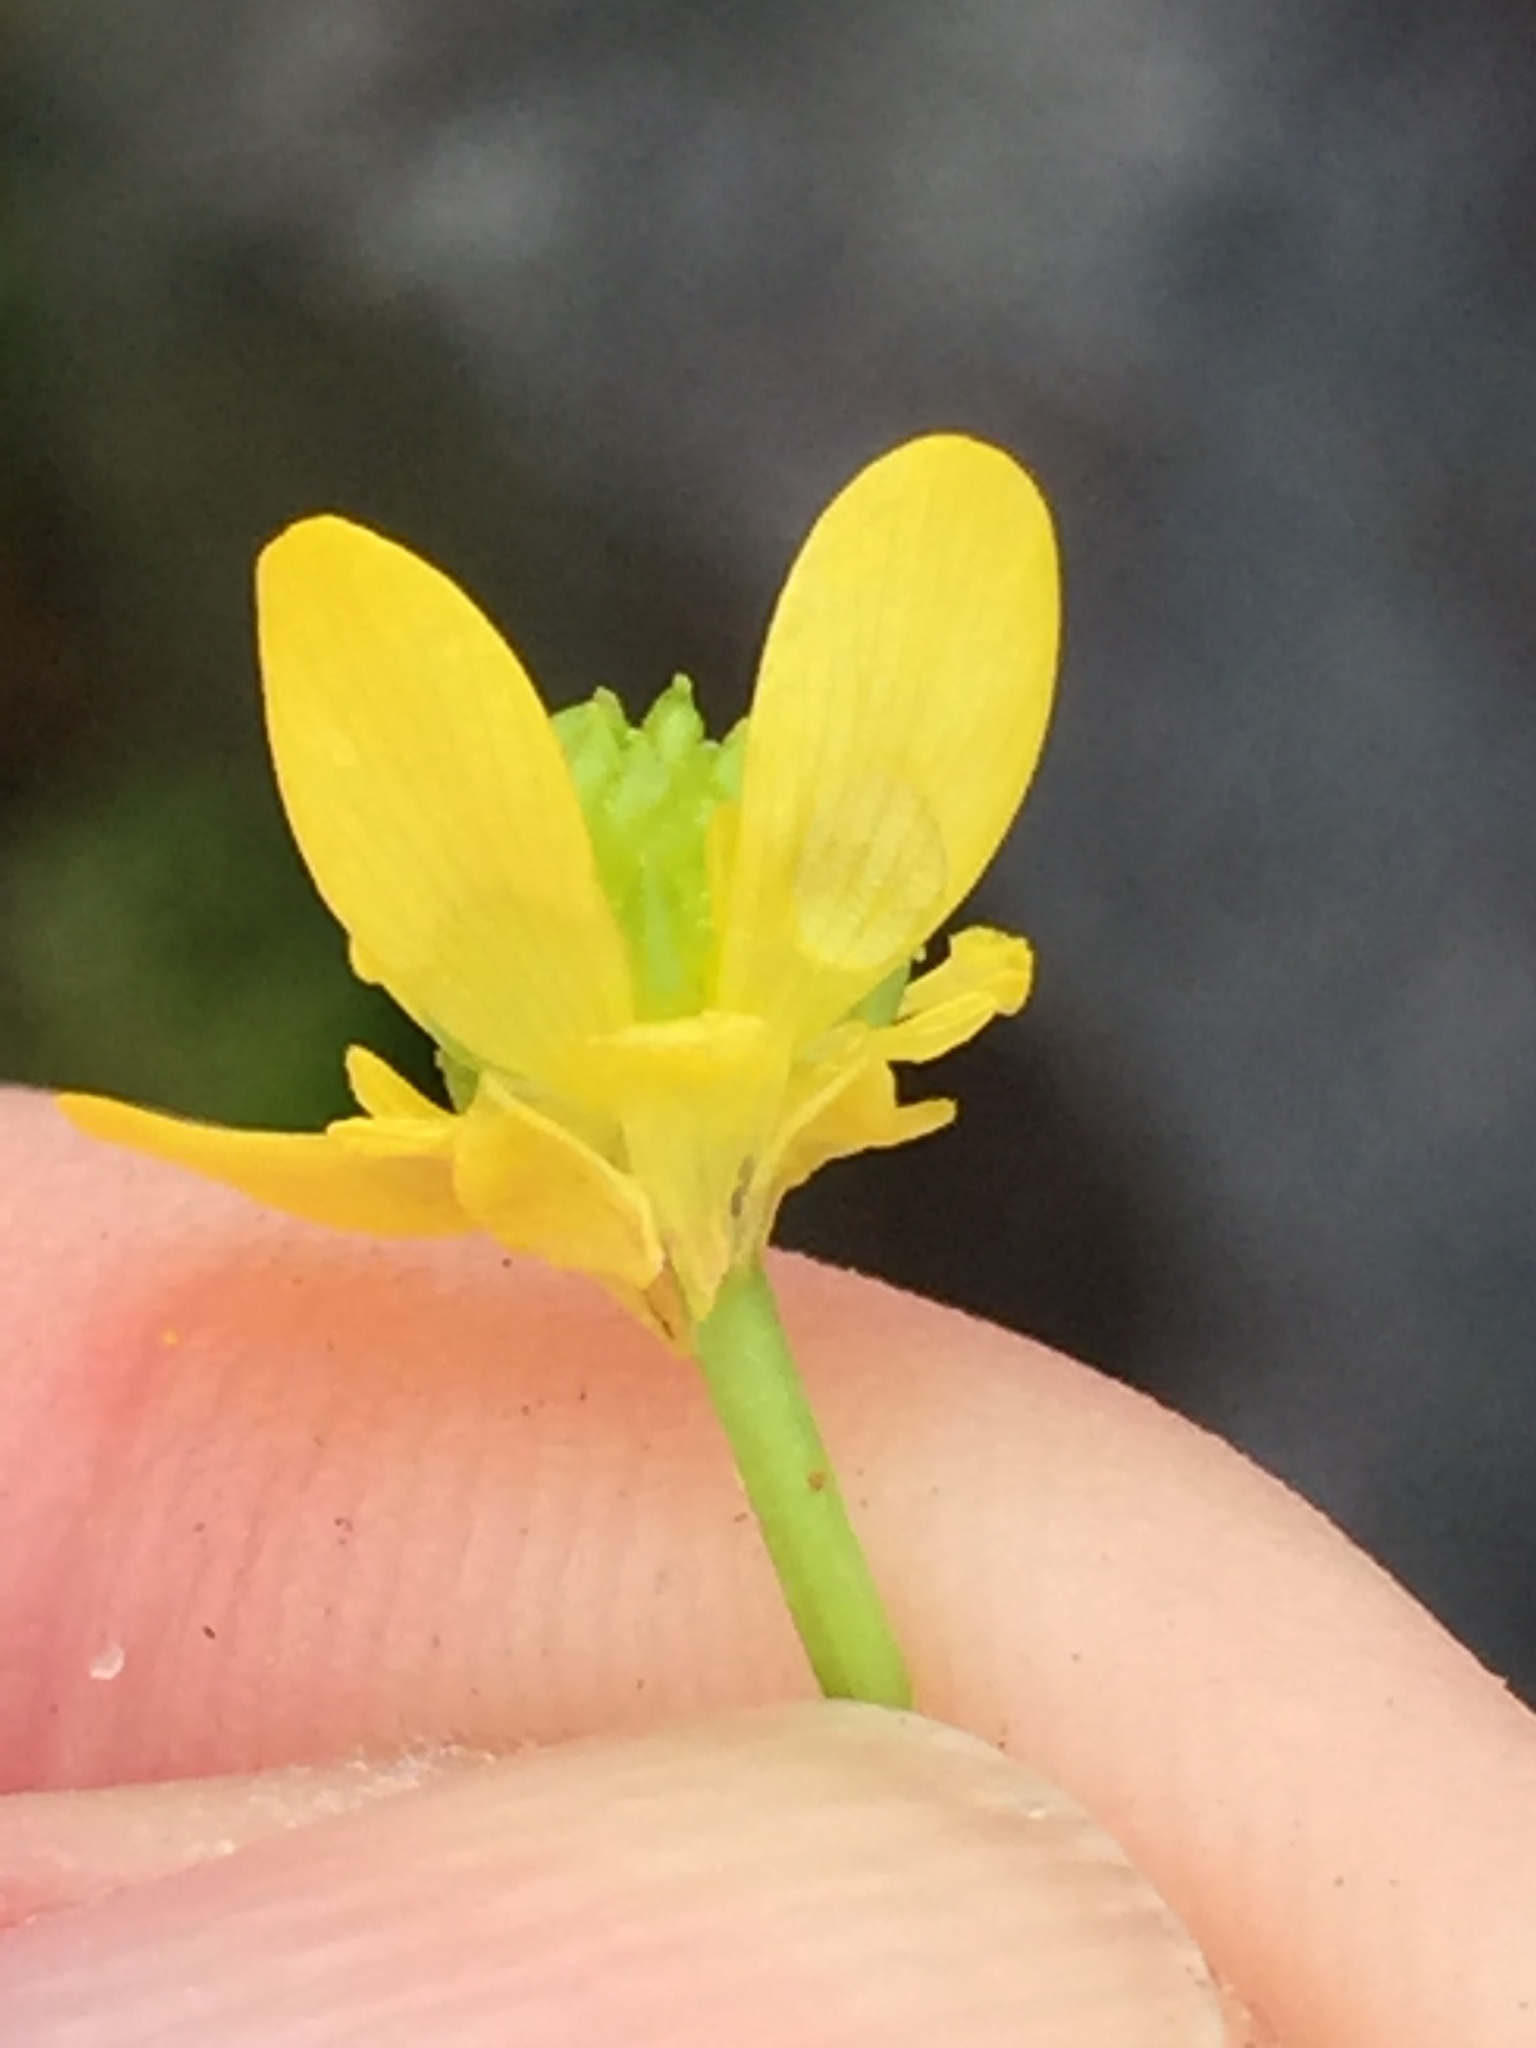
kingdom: Plantae
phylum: Tracheophyta
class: Magnoliopsida
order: Ranunculales
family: Ranunculaceae
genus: Ranunculus
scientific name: Ranunculus trilobus
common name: Threelobe buttercup
